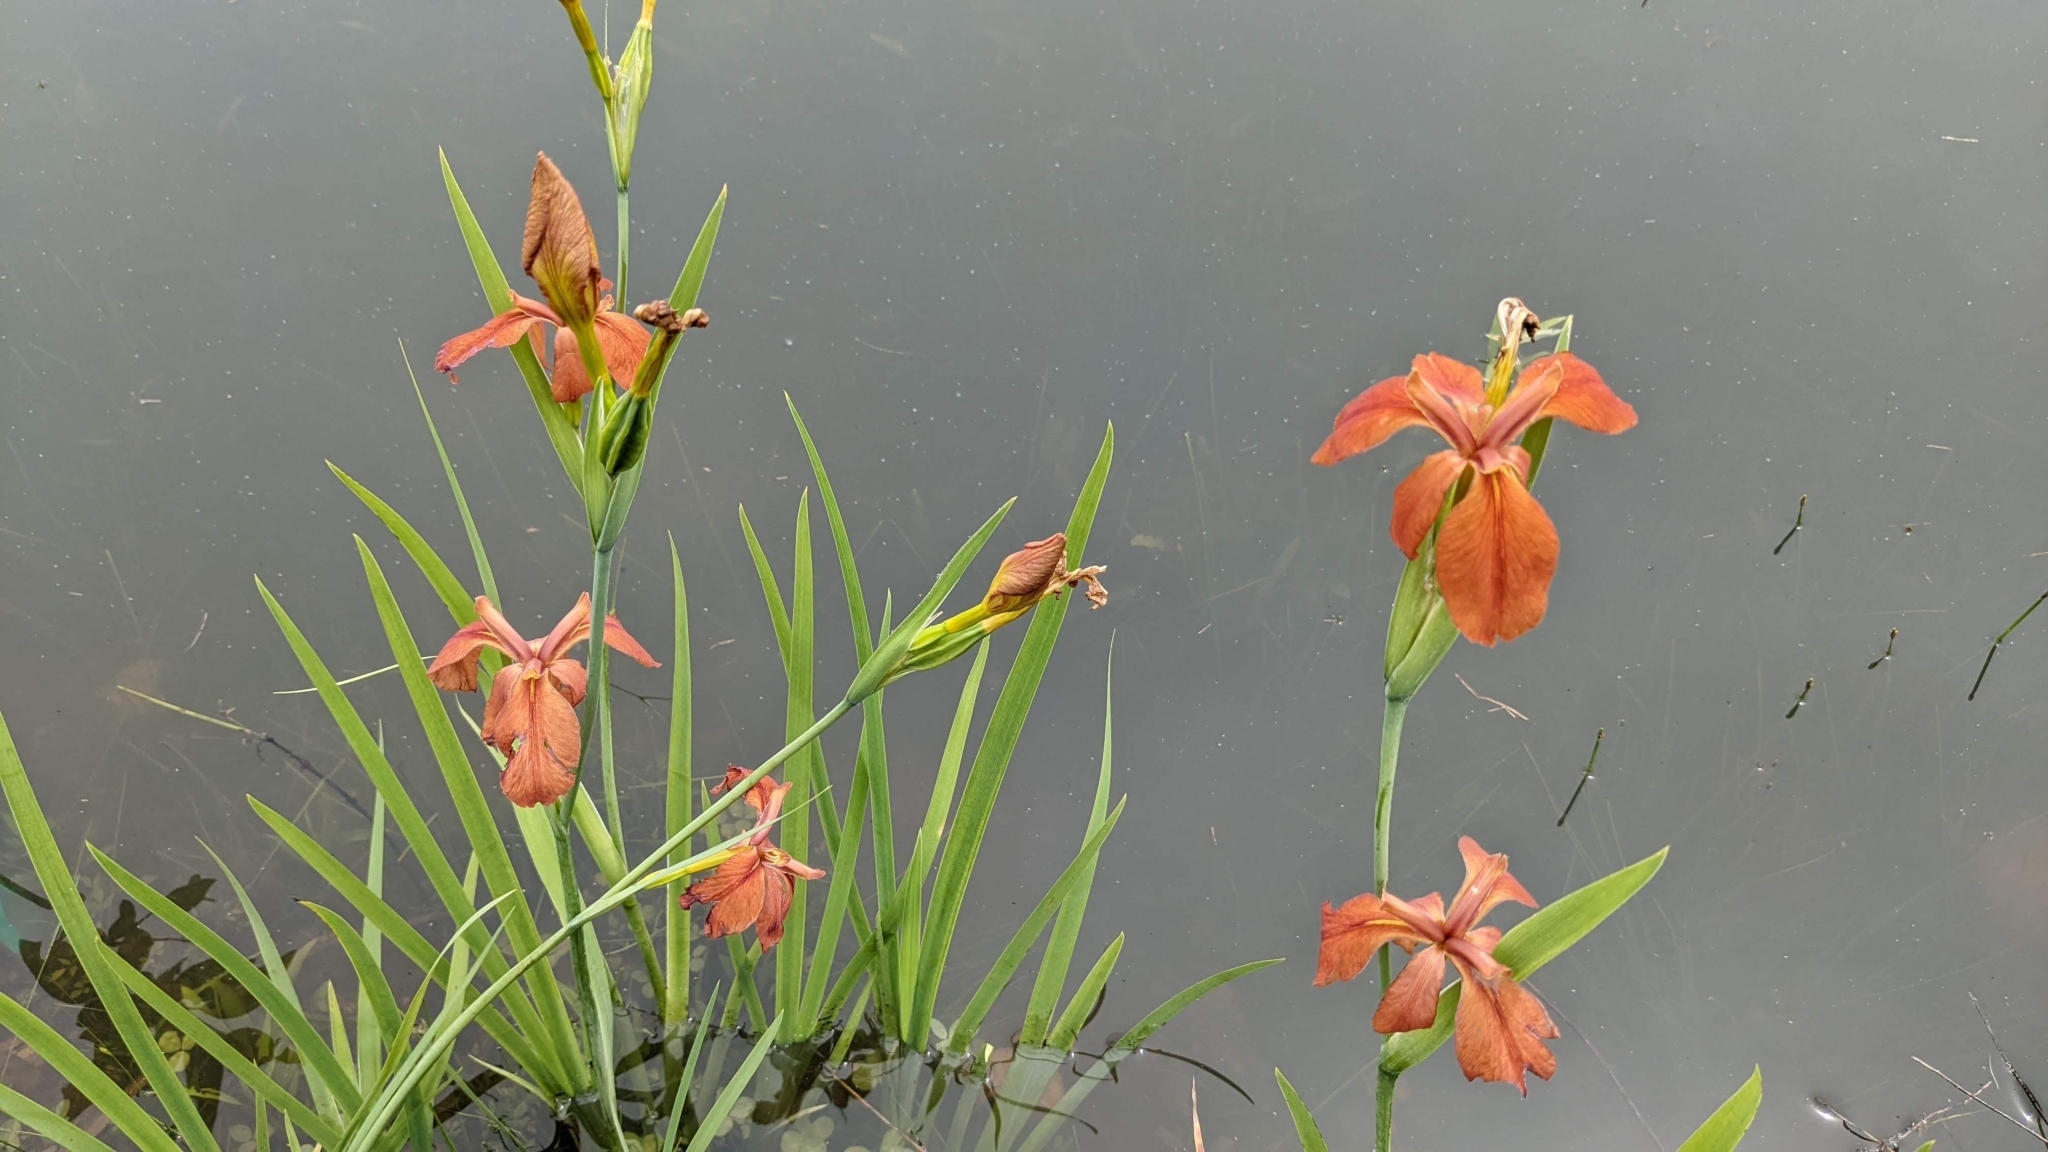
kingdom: Plantae
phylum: Tracheophyta
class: Liliopsida
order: Asparagales
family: Iridaceae
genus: Iris
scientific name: Iris fulva
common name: Copper iris
